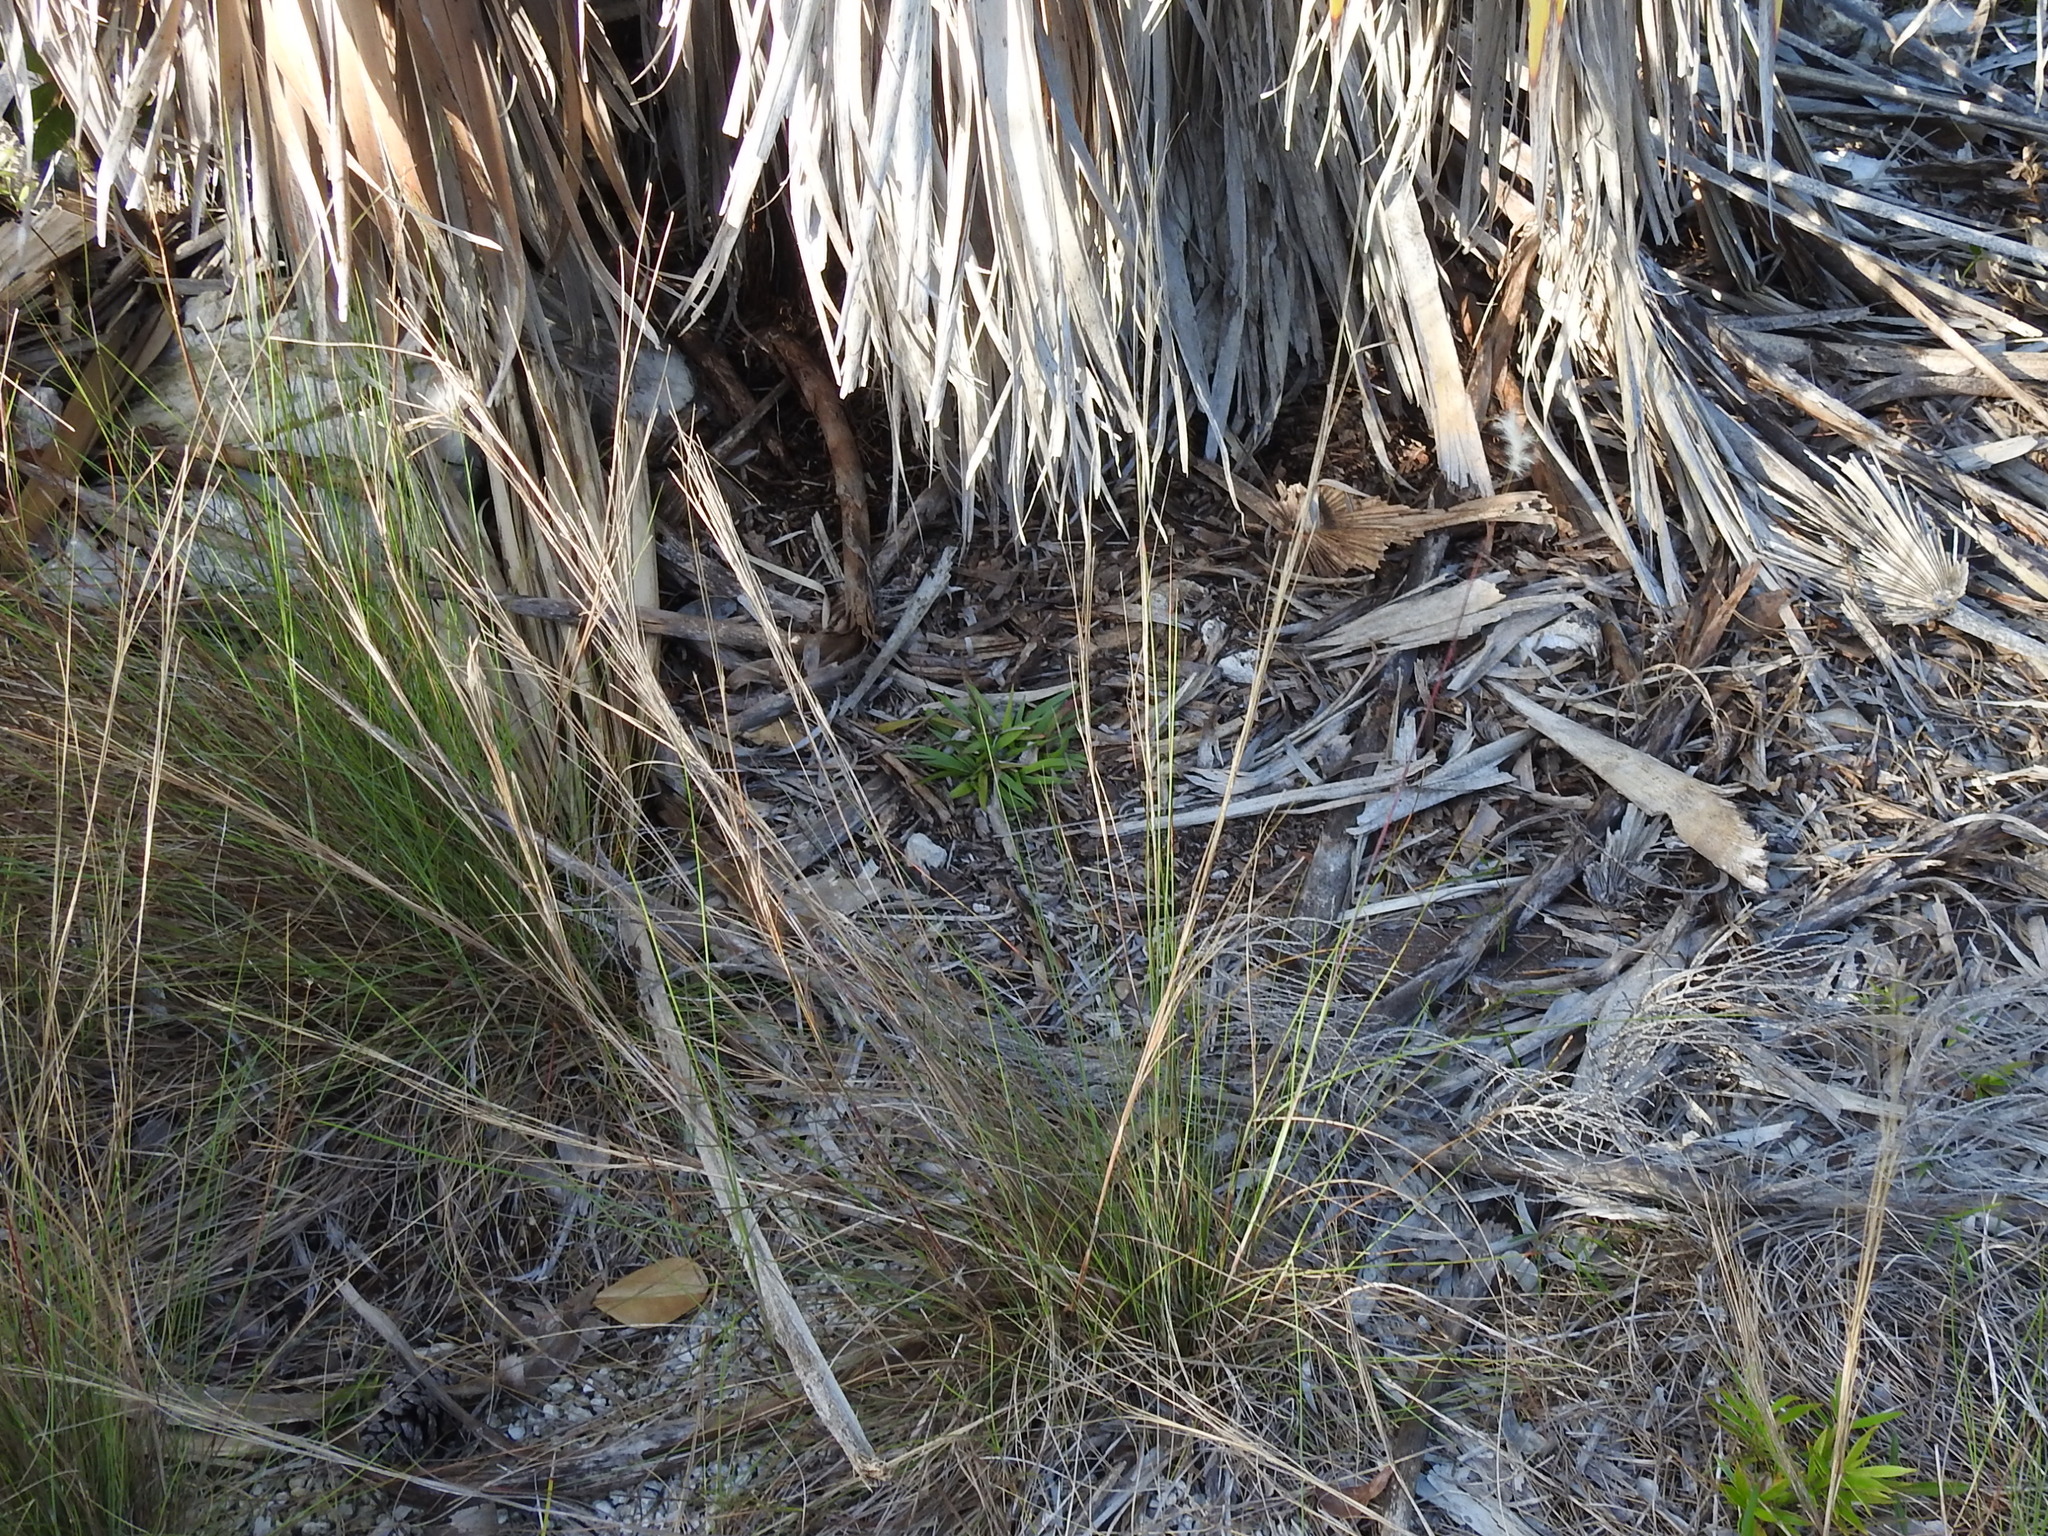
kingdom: Plantae
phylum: Tracheophyta
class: Liliopsida
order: Poales
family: Poaceae
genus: Schizachyrium
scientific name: Schizachyrium gracile
